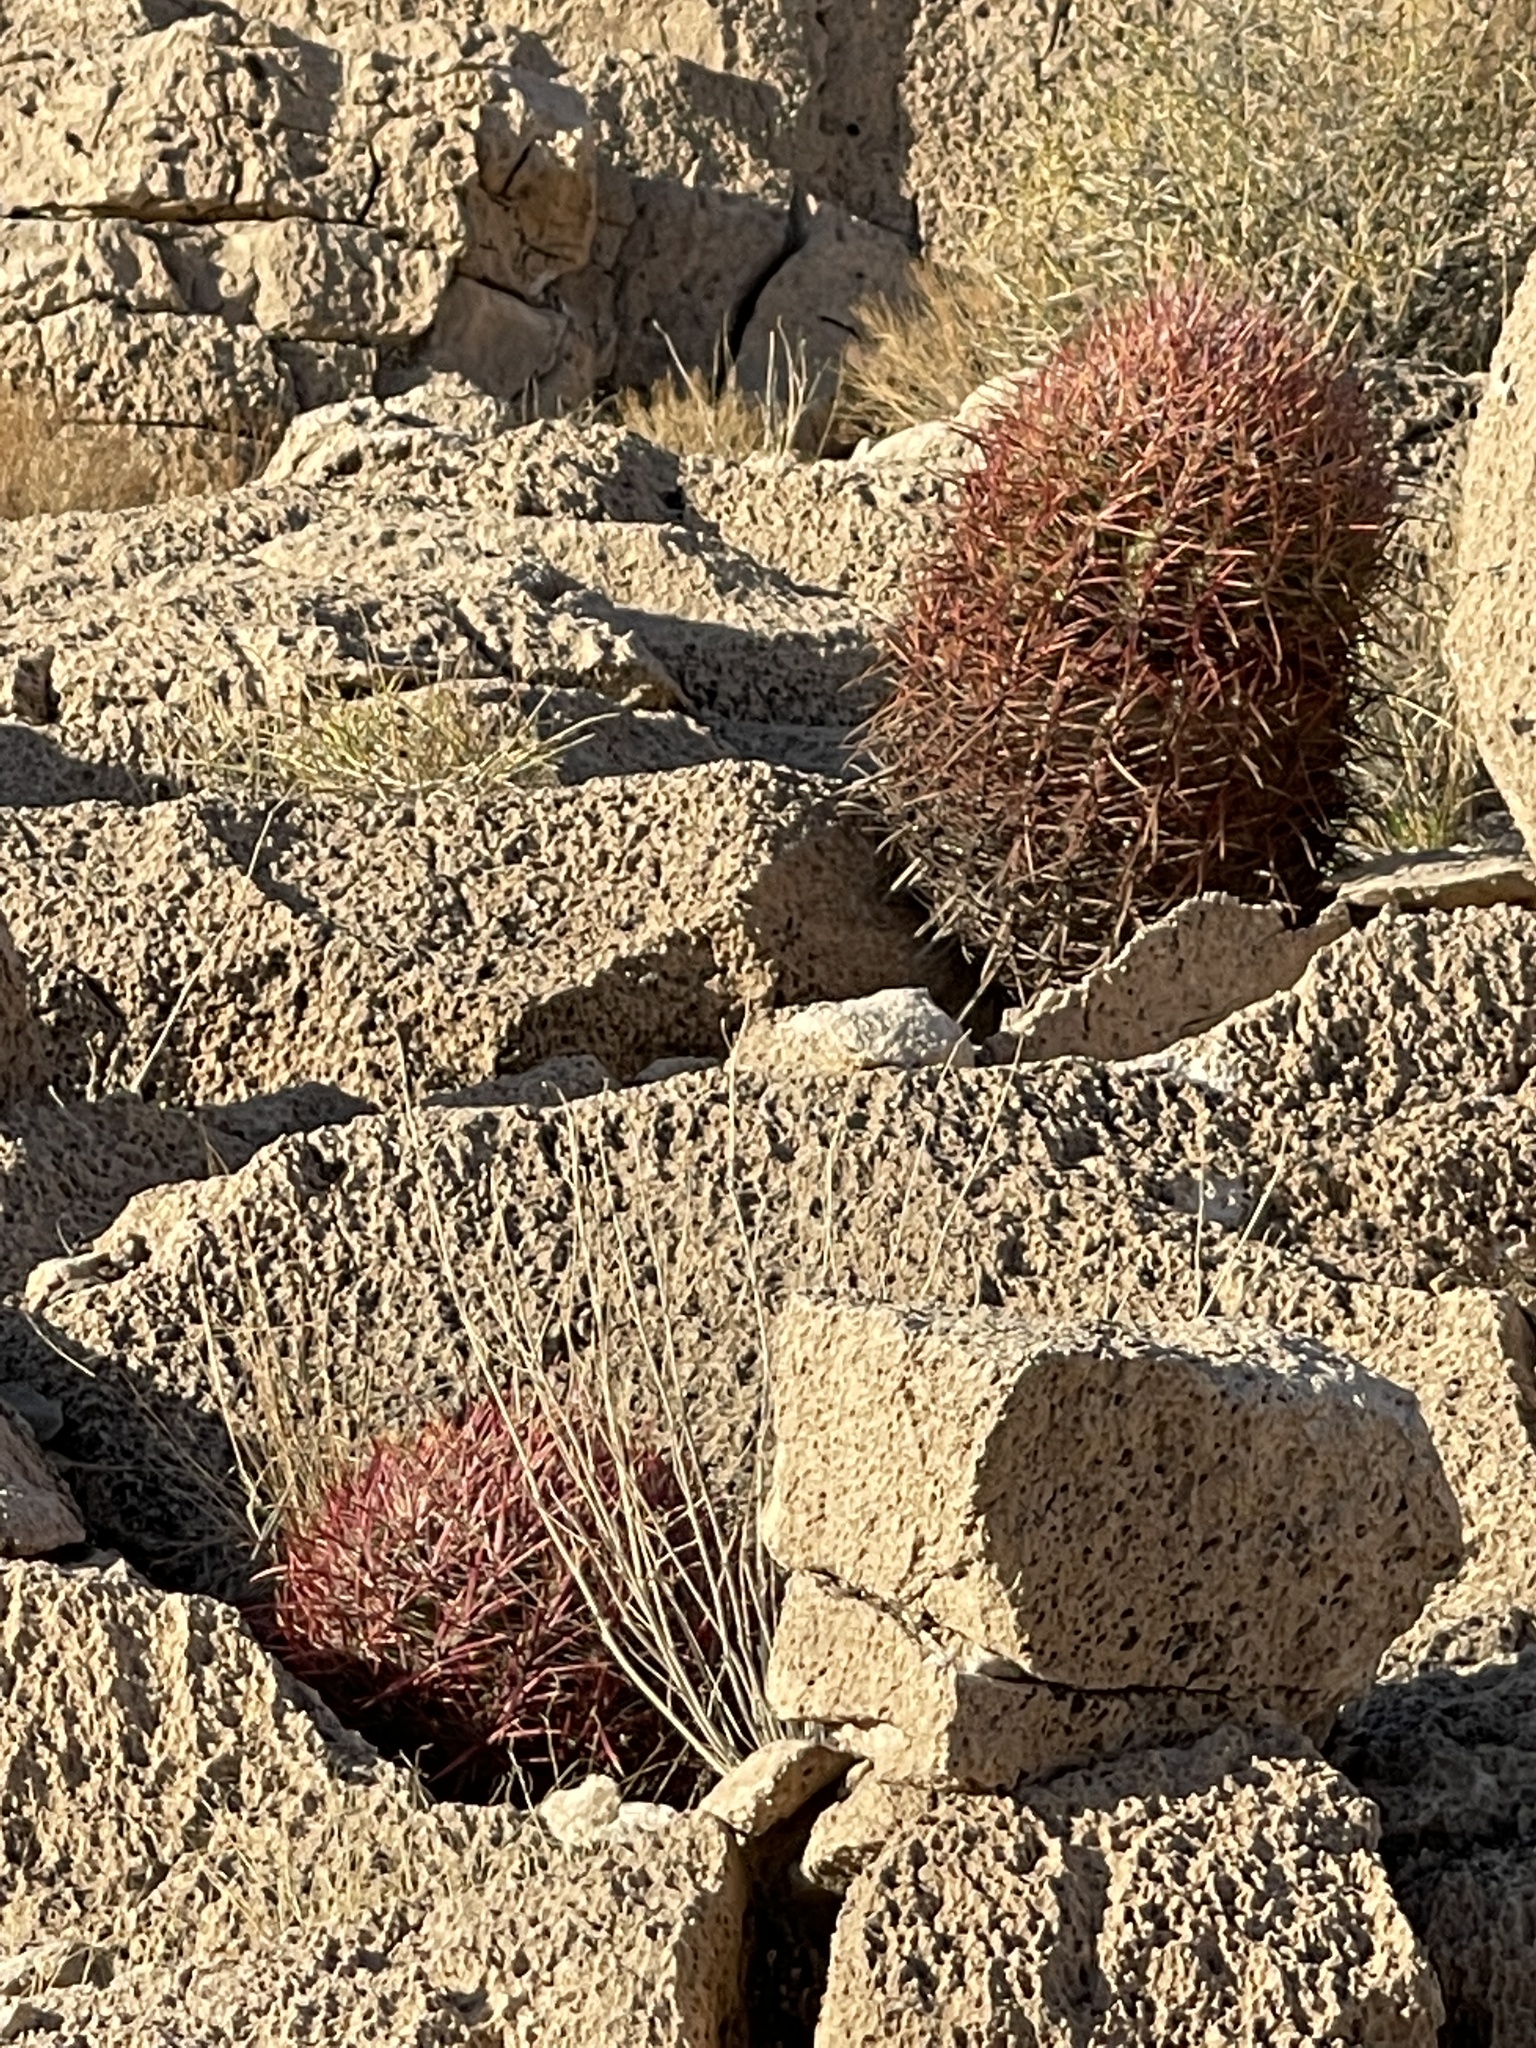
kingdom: Plantae
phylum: Tracheophyta
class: Magnoliopsida
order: Caryophyllales
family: Cactaceae
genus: Ferocactus
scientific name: Ferocactus cylindraceus
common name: California barrel cactus
